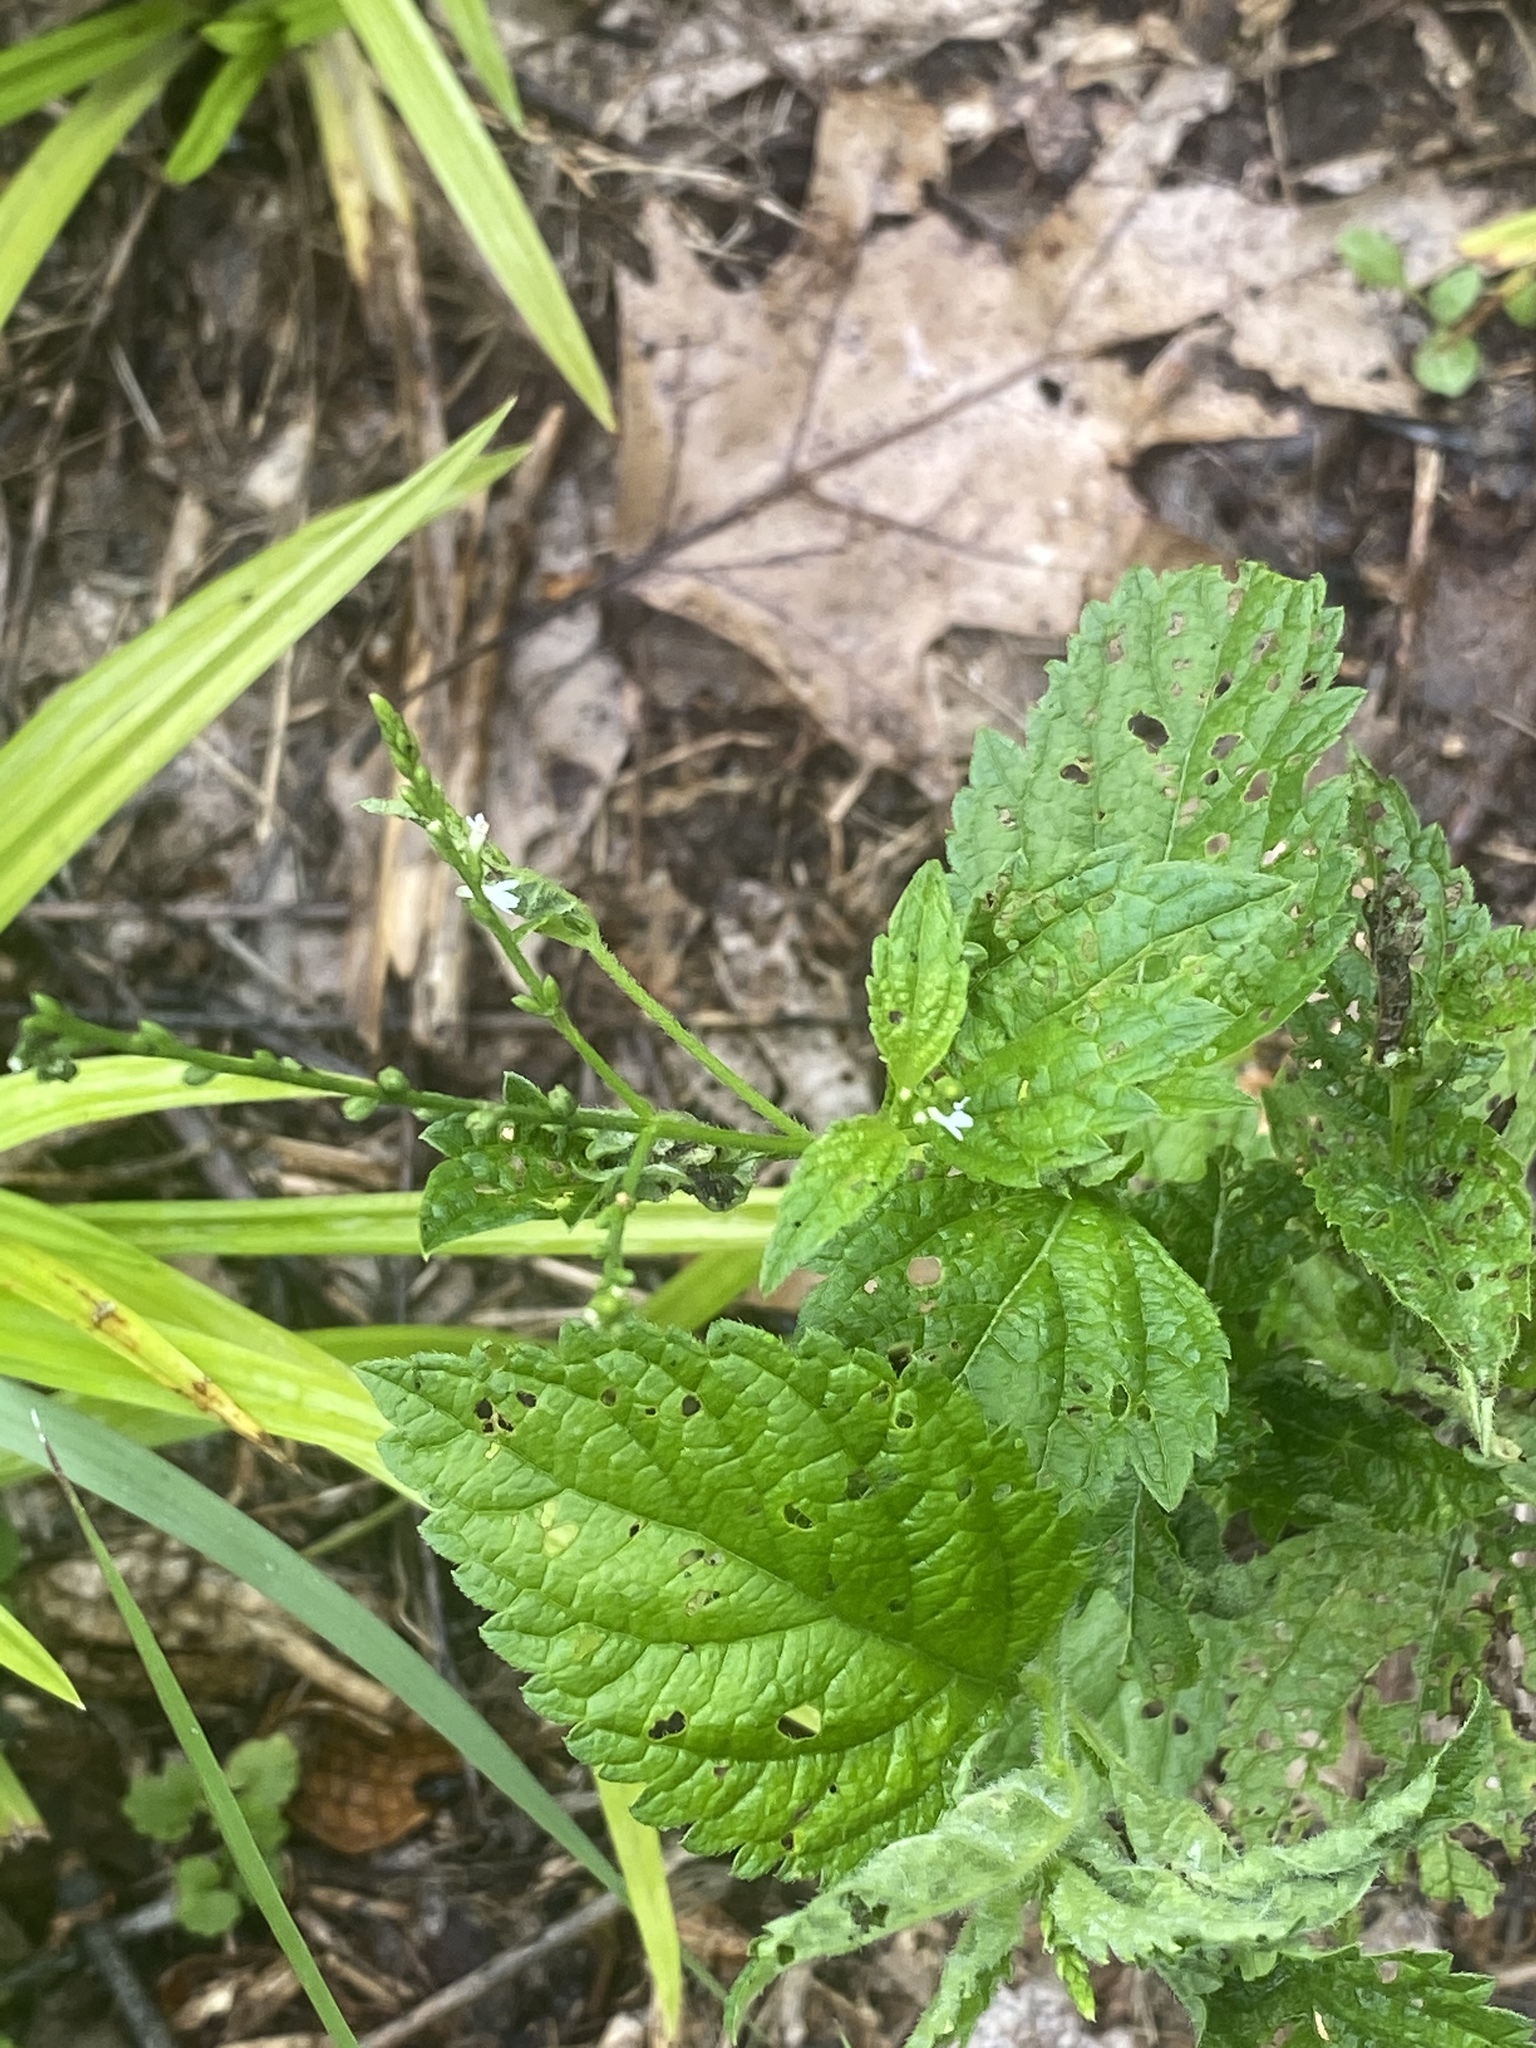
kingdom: Plantae
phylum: Tracheophyta
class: Magnoliopsida
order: Lamiales
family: Verbenaceae
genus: Verbena
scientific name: Verbena urticifolia
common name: Nettle-leaved vervain
